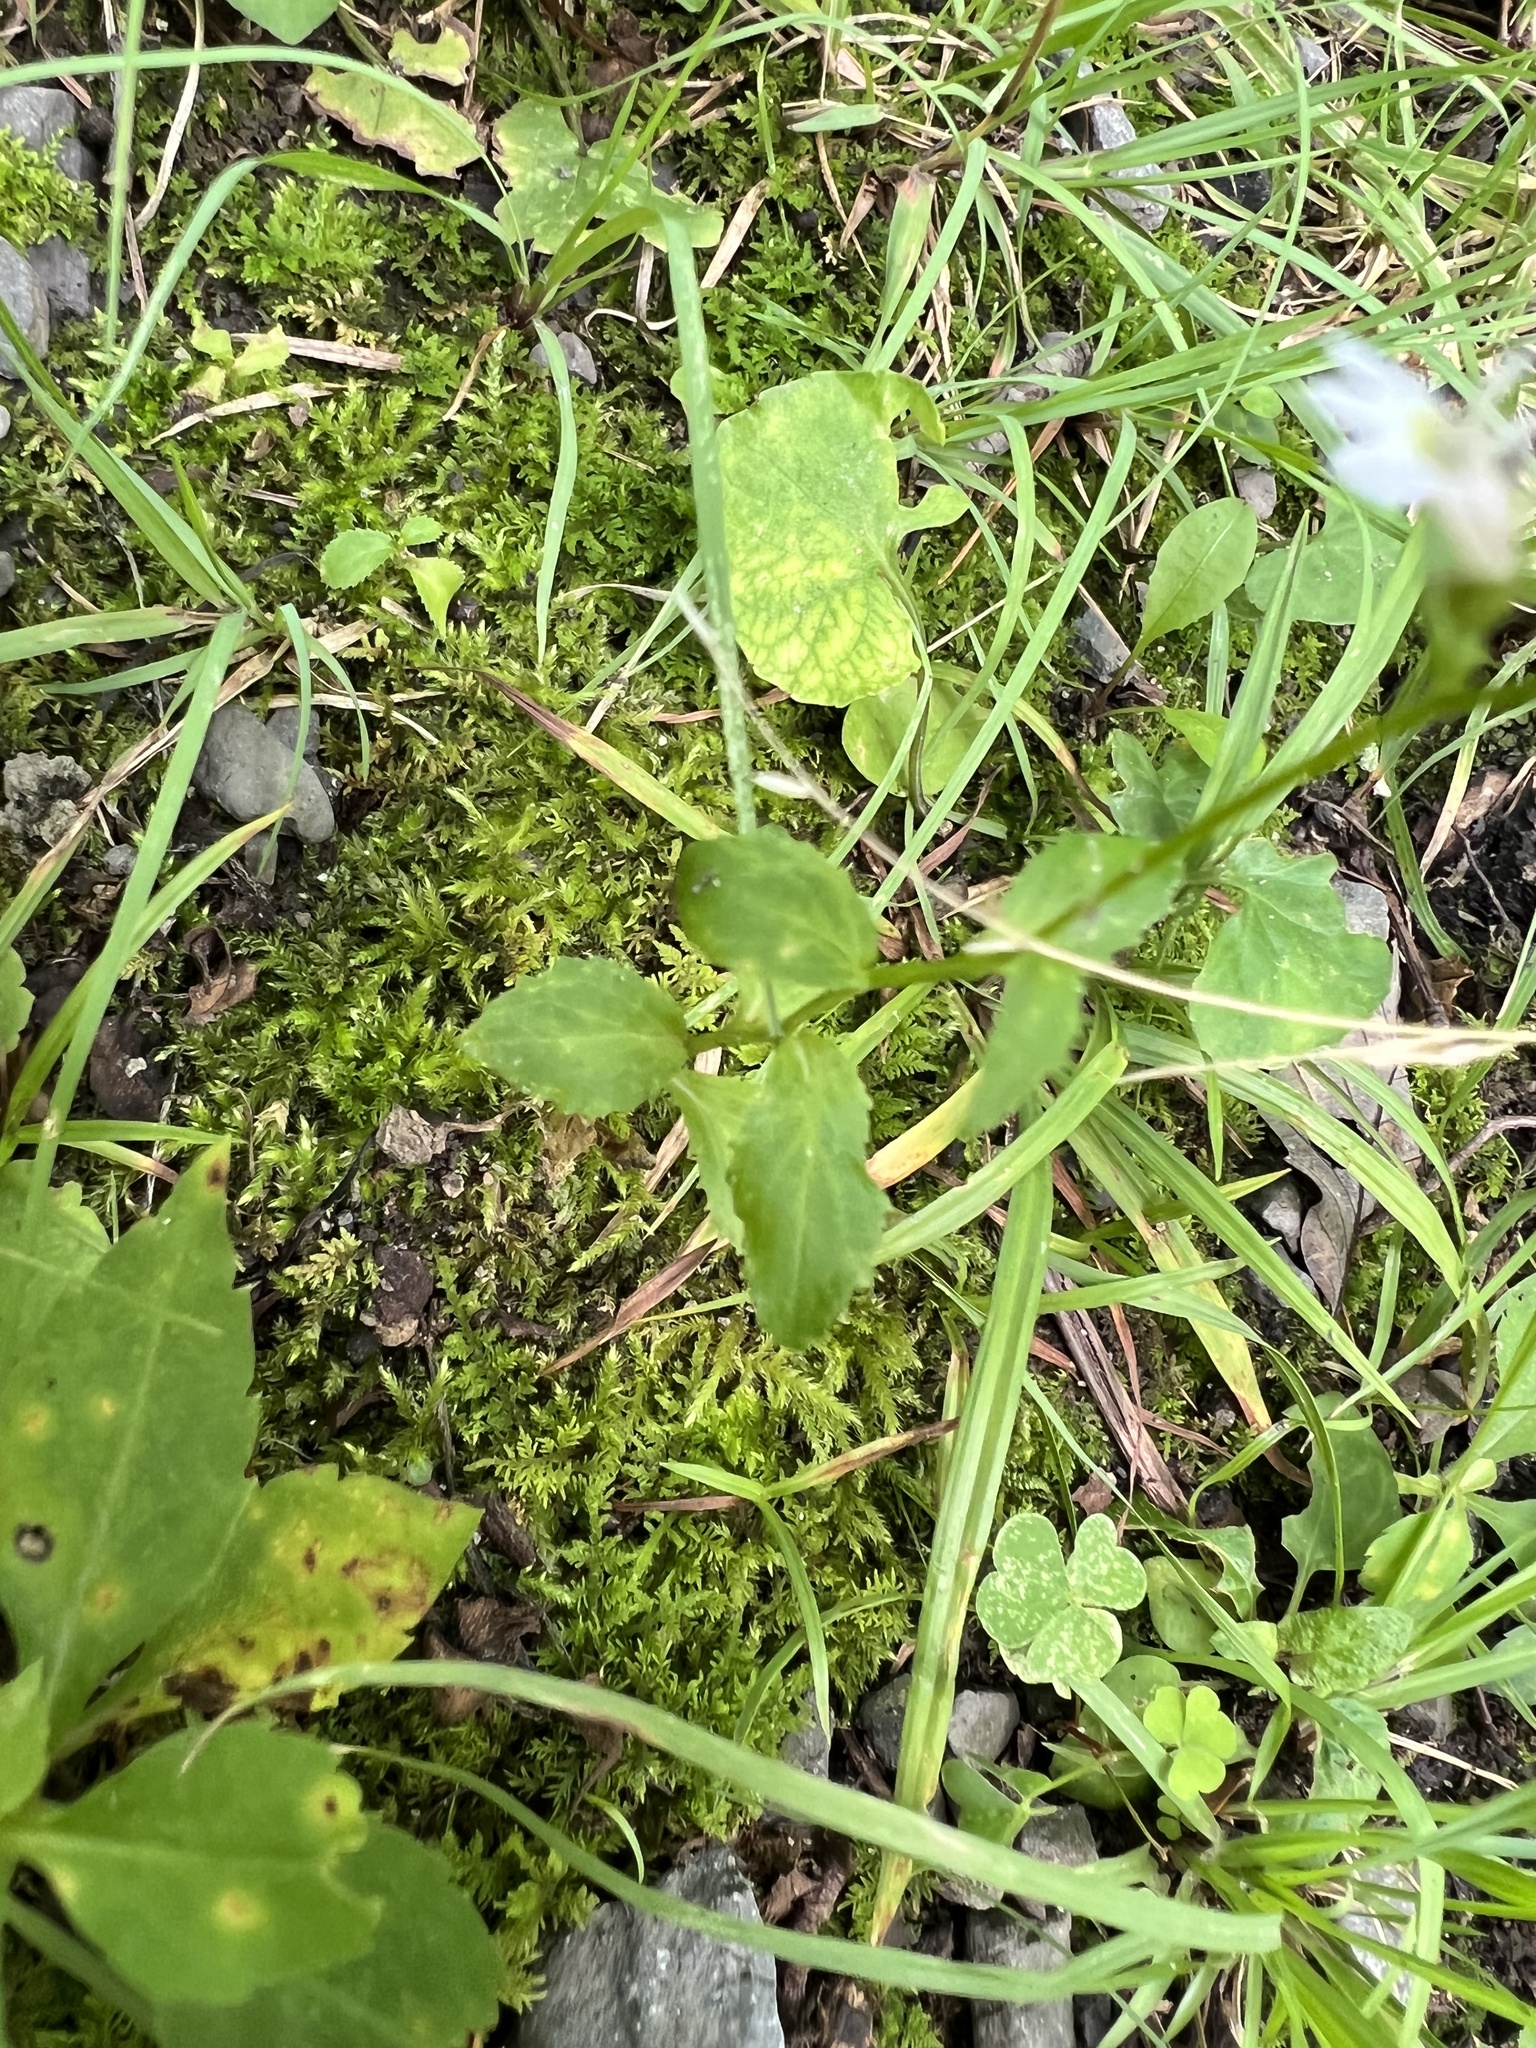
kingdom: Plantae
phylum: Tracheophyta
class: Magnoliopsida
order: Asterales
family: Campanulaceae
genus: Lobelia
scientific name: Lobelia inflata
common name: Indian tobacco
